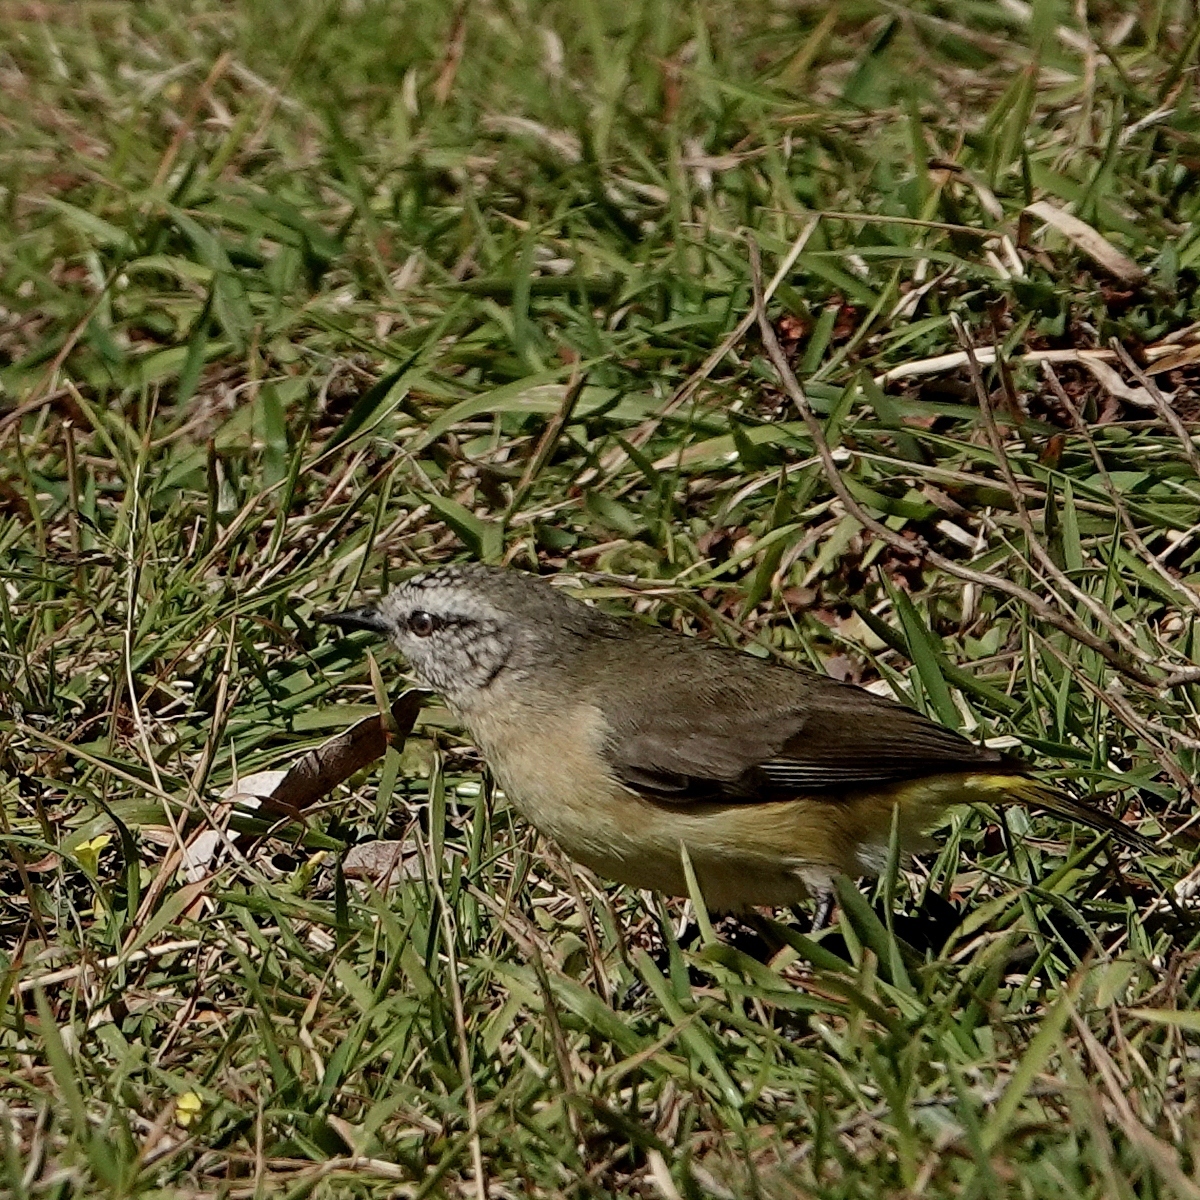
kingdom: Animalia
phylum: Chordata
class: Aves
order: Passeriformes
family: Acanthizidae
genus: Acanthiza
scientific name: Acanthiza chrysorrhoa
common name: Yellow-rumped thornbill
